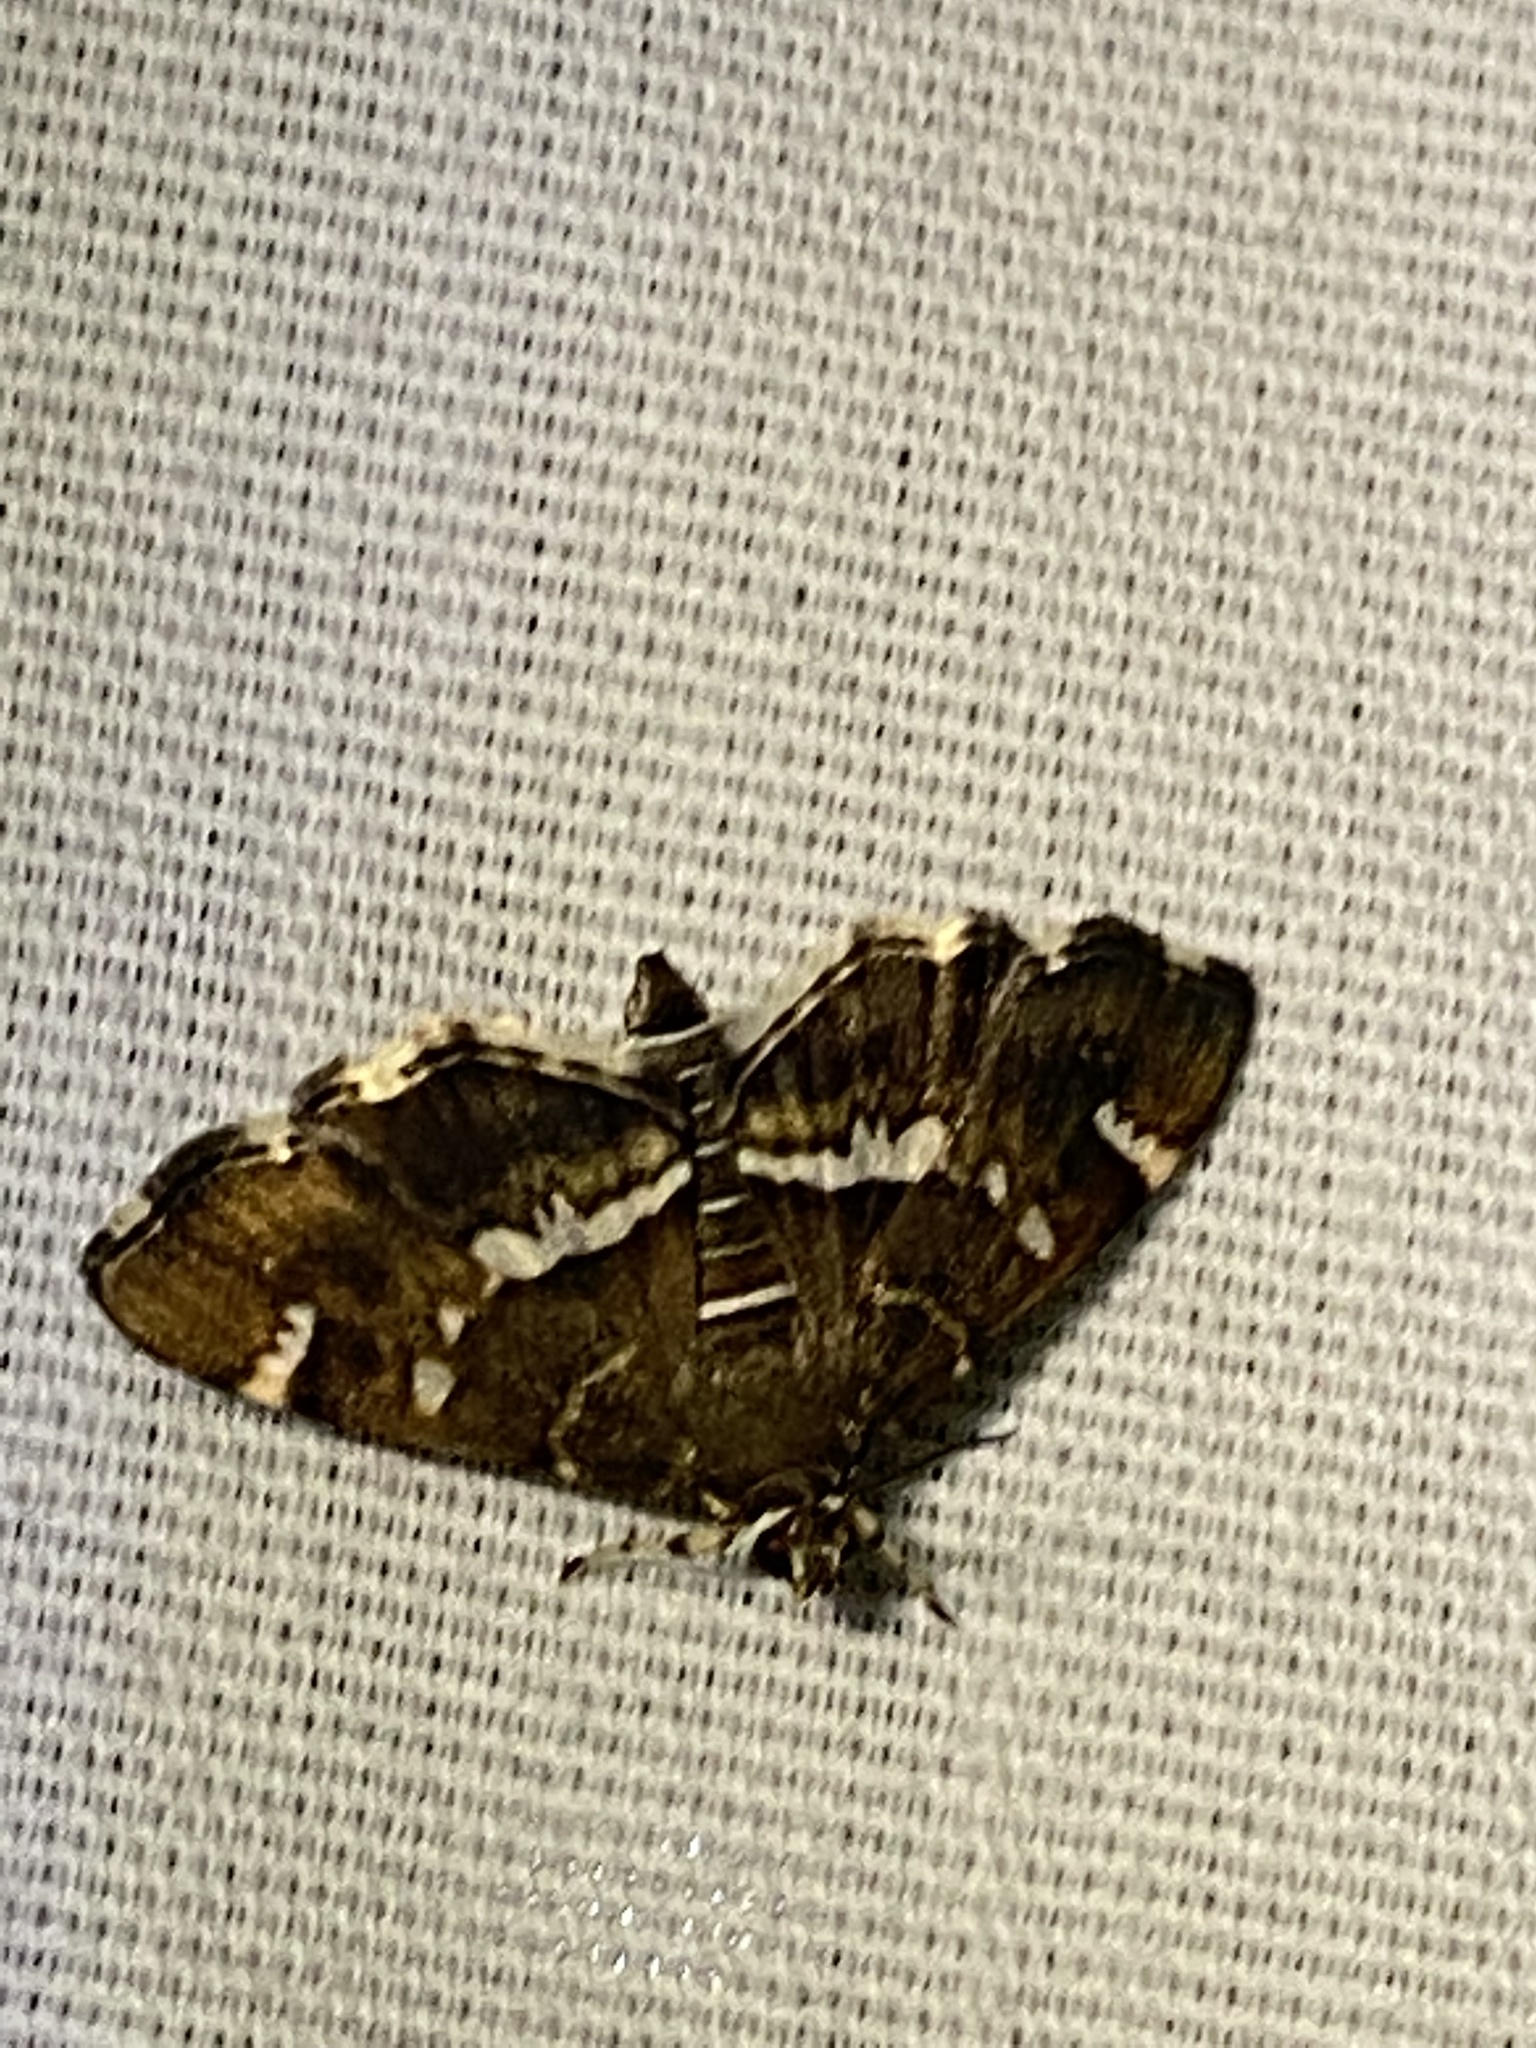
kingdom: Animalia
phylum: Arthropoda
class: Insecta
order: Lepidoptera
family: Crambidae
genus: Hymenia
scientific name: Hymenia perspectalis
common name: Spotted beet webworm
